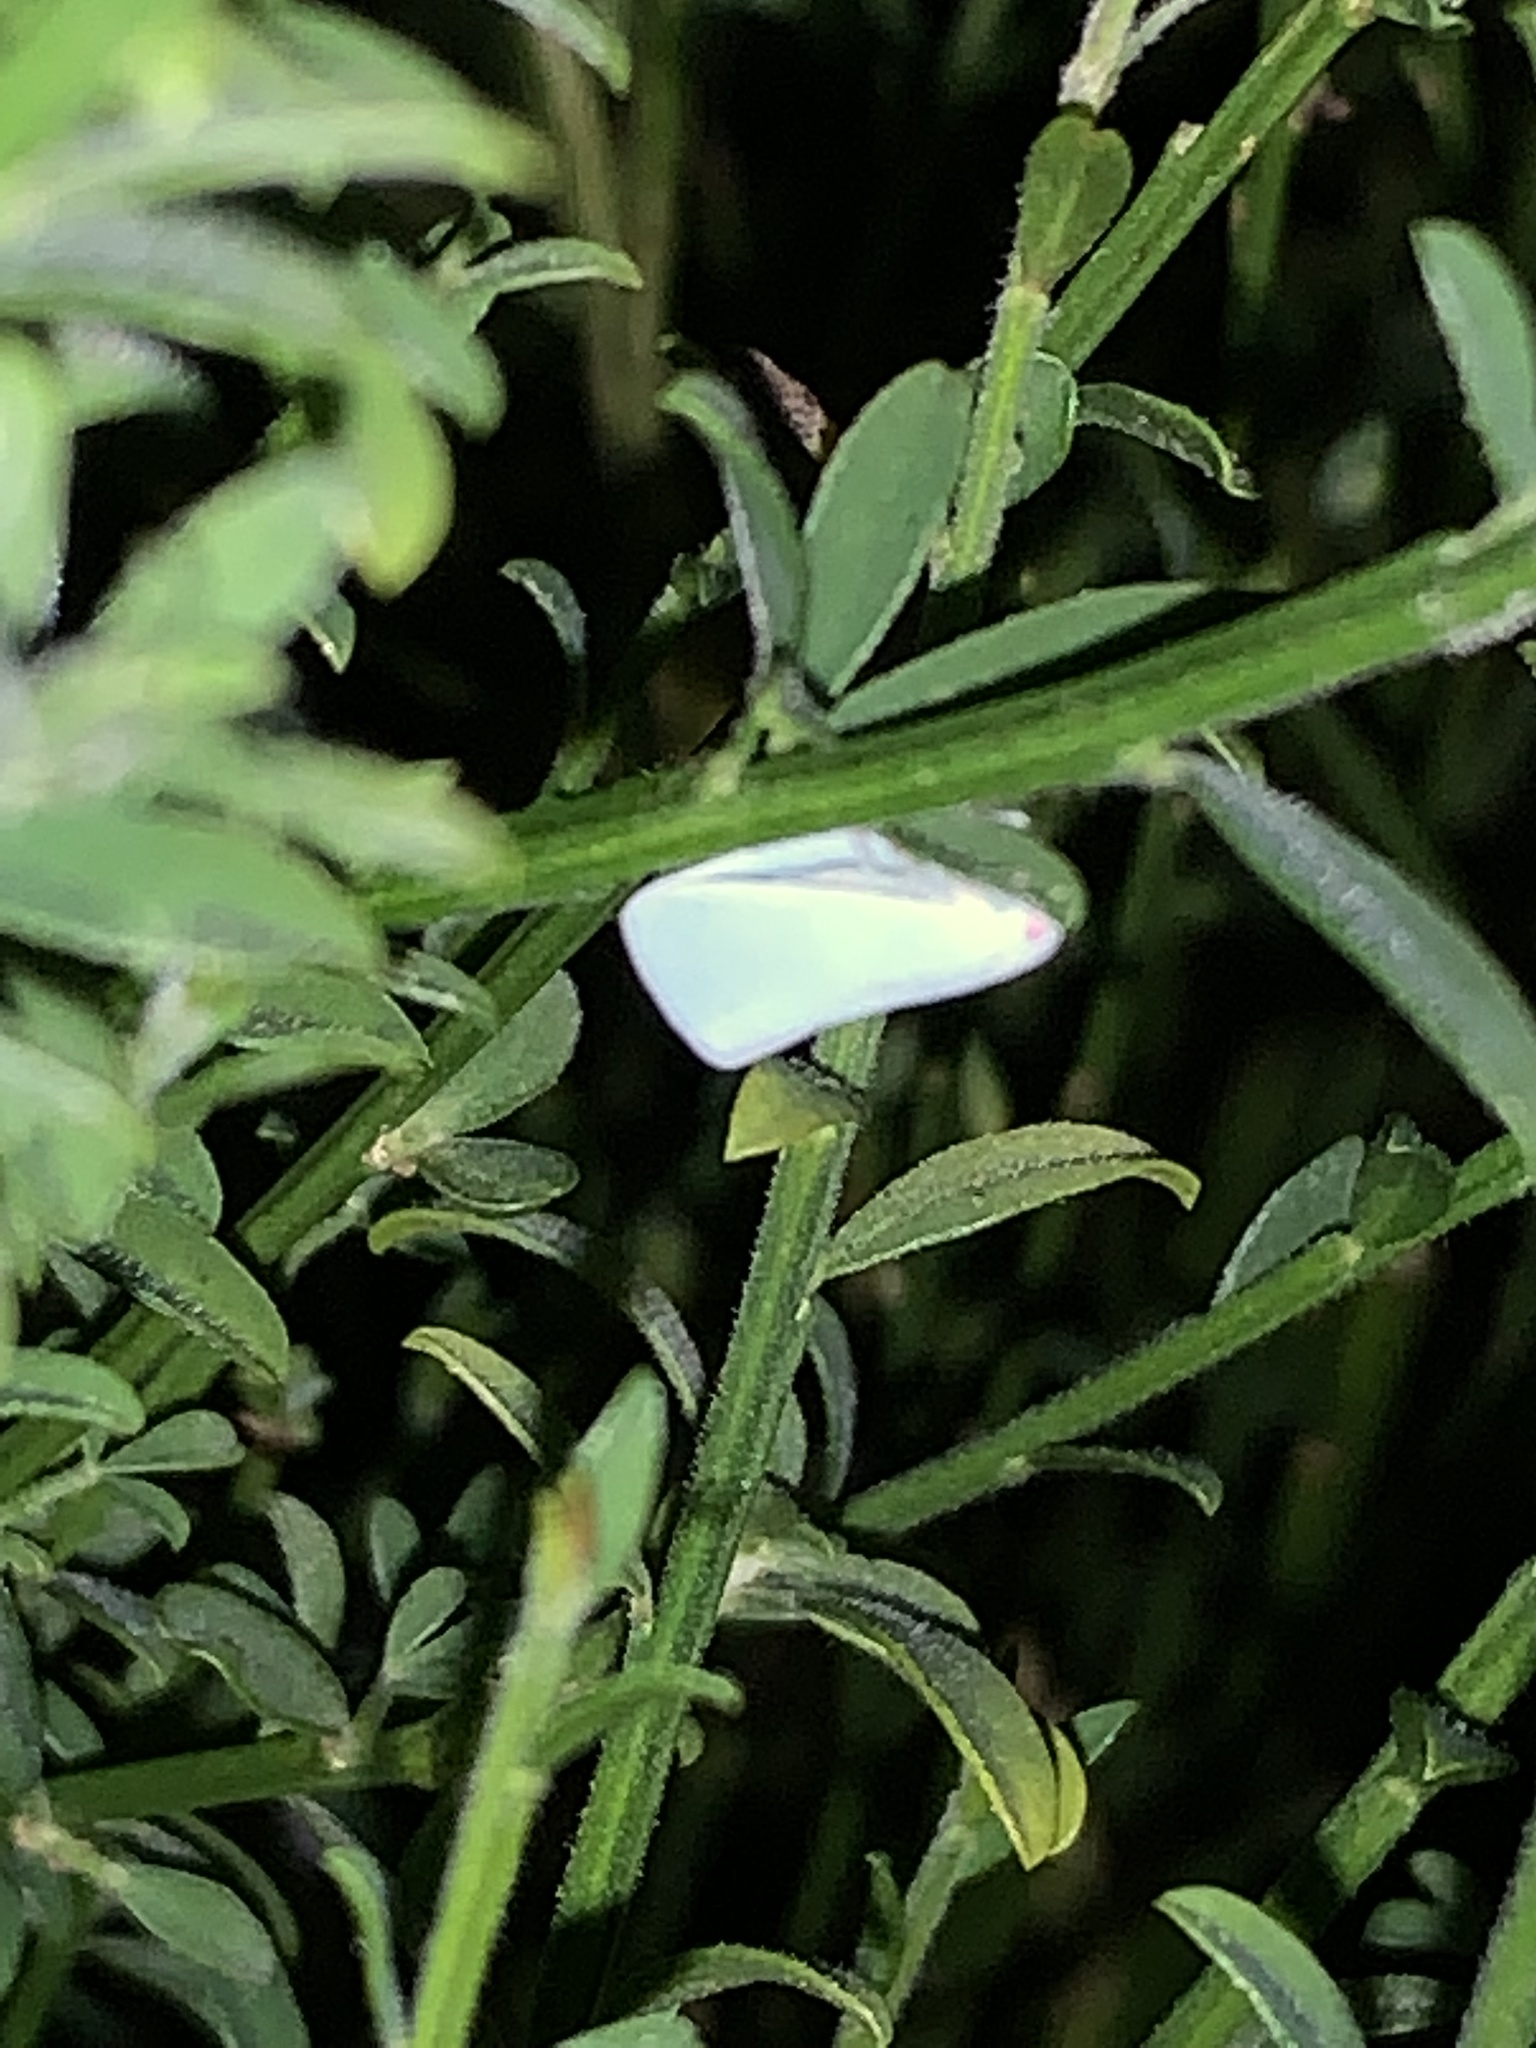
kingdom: Animalia
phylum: Arthropoda
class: Insecta
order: Hemiptera
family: Flatidae
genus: Flatormenis
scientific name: Flatormenis proxima
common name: Northern flatid planthopper
